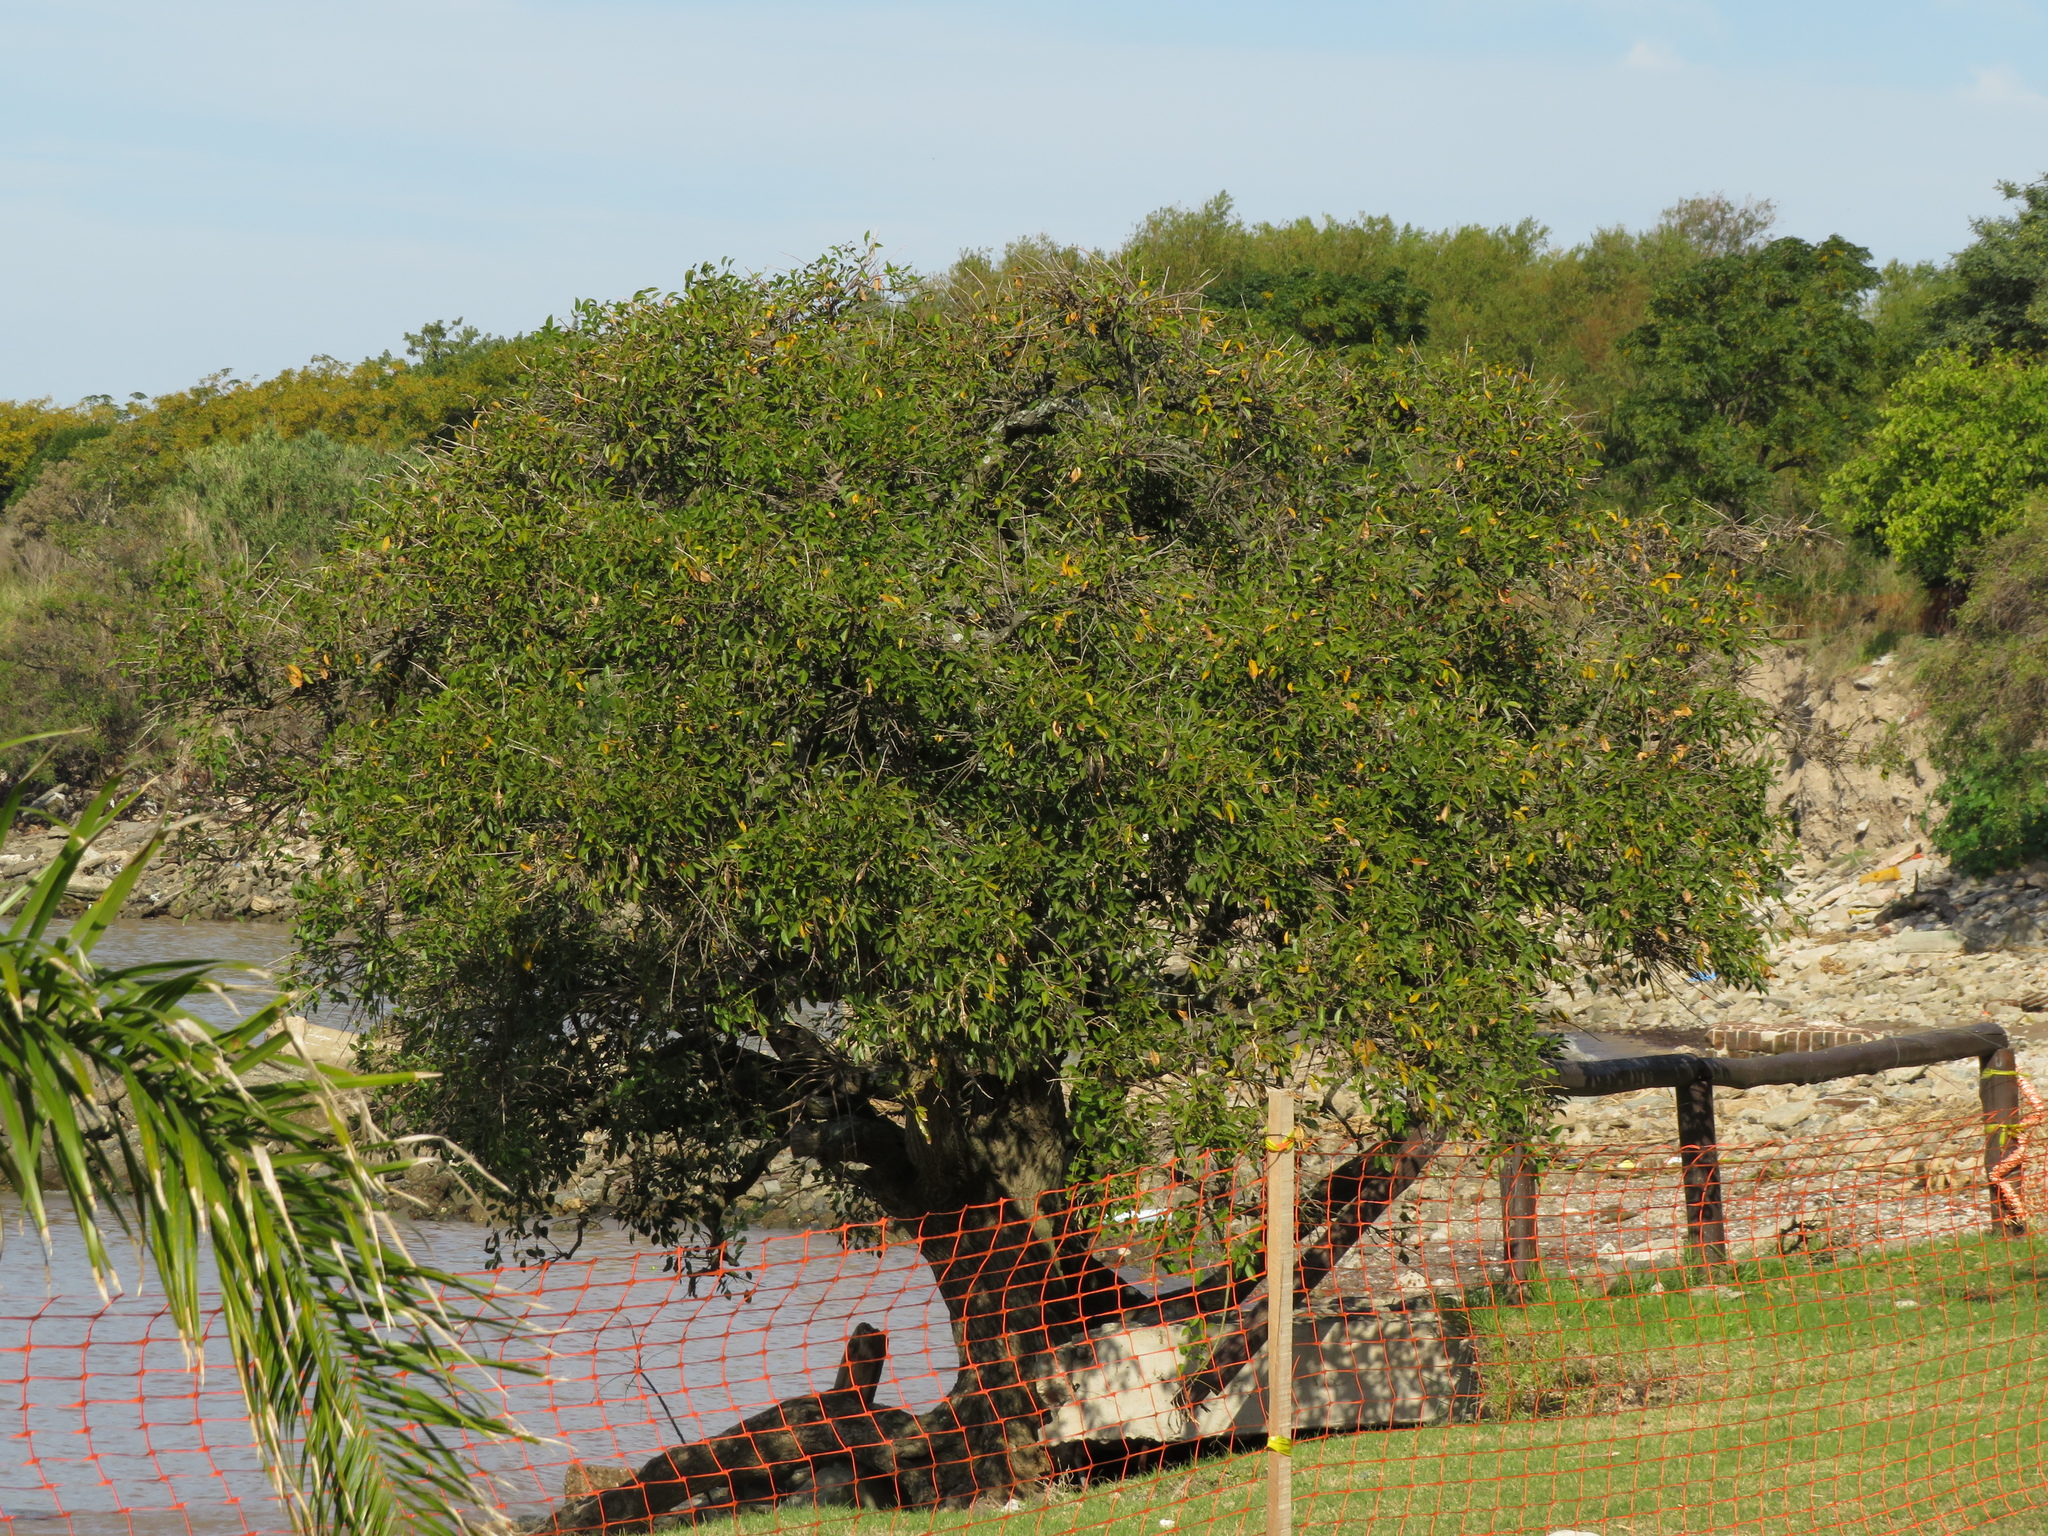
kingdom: Plantae
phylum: Tracheophyta
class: Magnoliopsida
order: Fabales
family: Fabaceae
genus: Erythrina
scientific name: Erythrina crista-galli
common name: Cockspur coral tree
